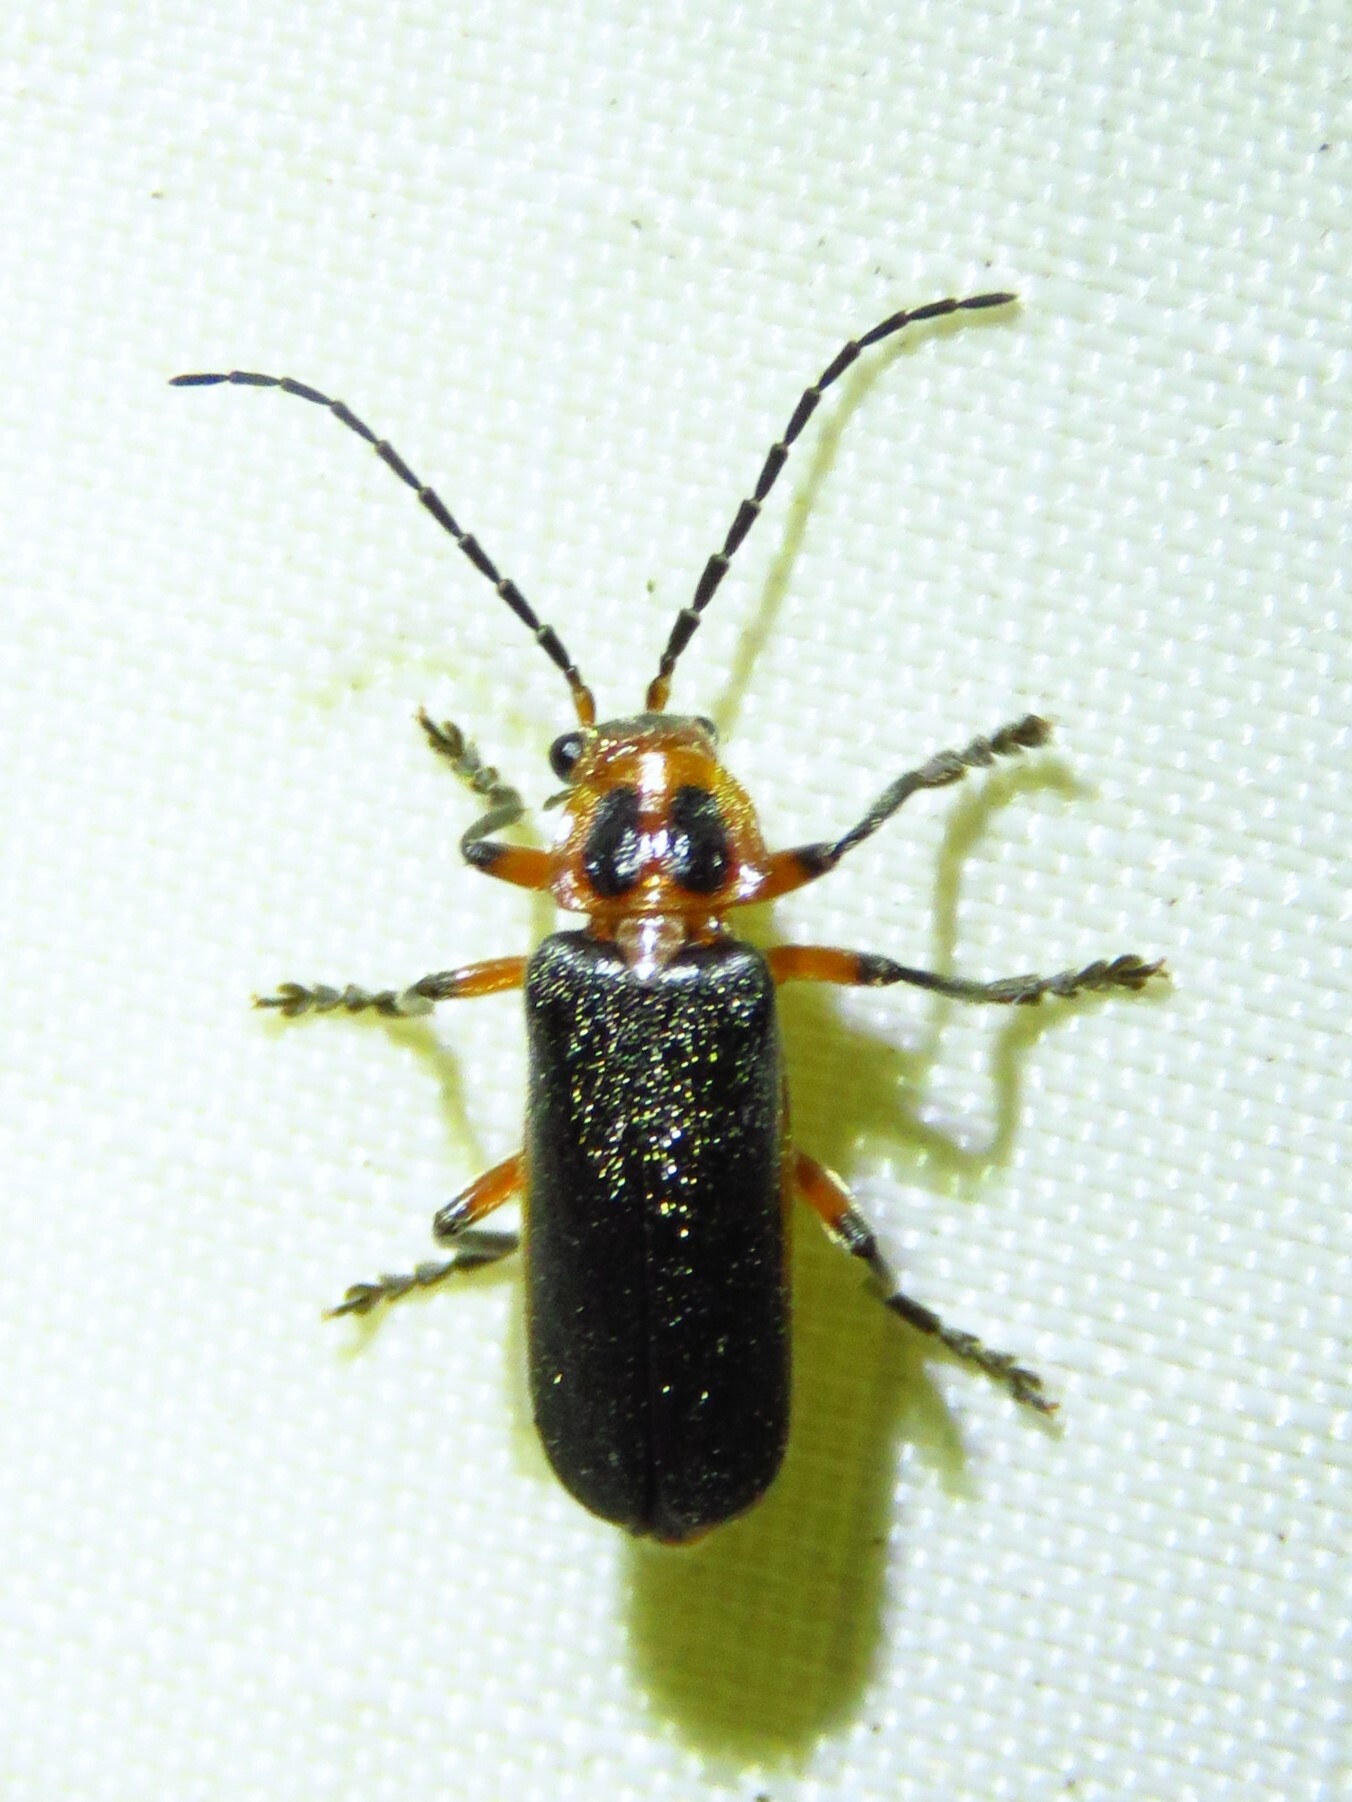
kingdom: Animalia
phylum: Arthropoda
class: Insecta
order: Coleoptera
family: Cantharidae
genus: Atalantycha
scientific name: Atalantycha bilineata
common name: Two-lined leatherwing
